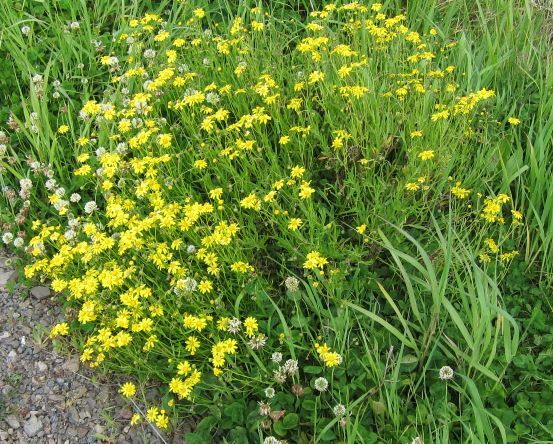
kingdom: Plantae
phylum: Tracheophyta
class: Magnoliopsida
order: Asterales
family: Asteraceae
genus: Senecio
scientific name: Senecio skirrhodon
